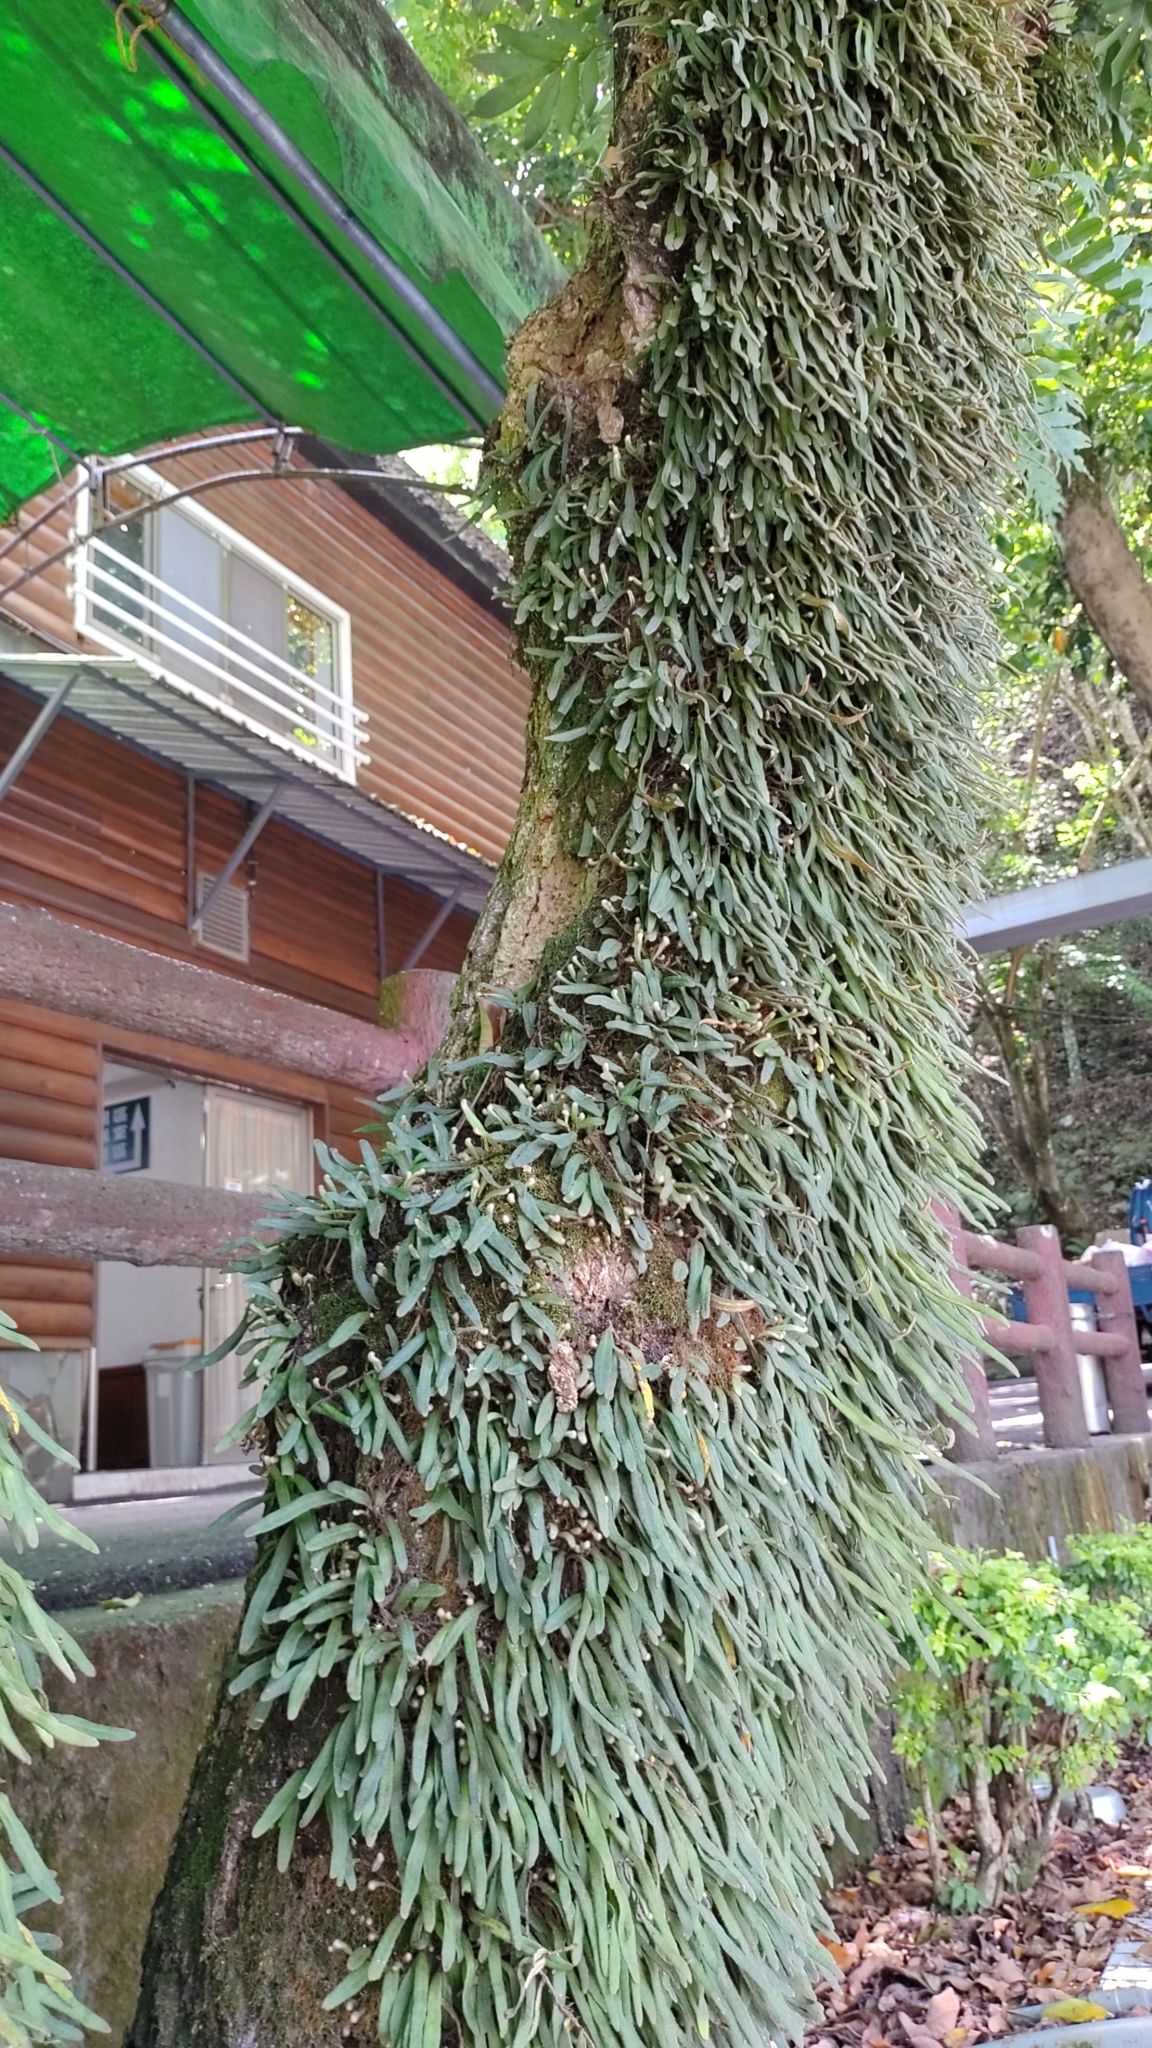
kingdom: Plantae
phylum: Tracheophyta
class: Polypodiopsida
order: Polypodiales
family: Polypodiaceae
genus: Pyrrosia
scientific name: Pyrrosia linearifolia
